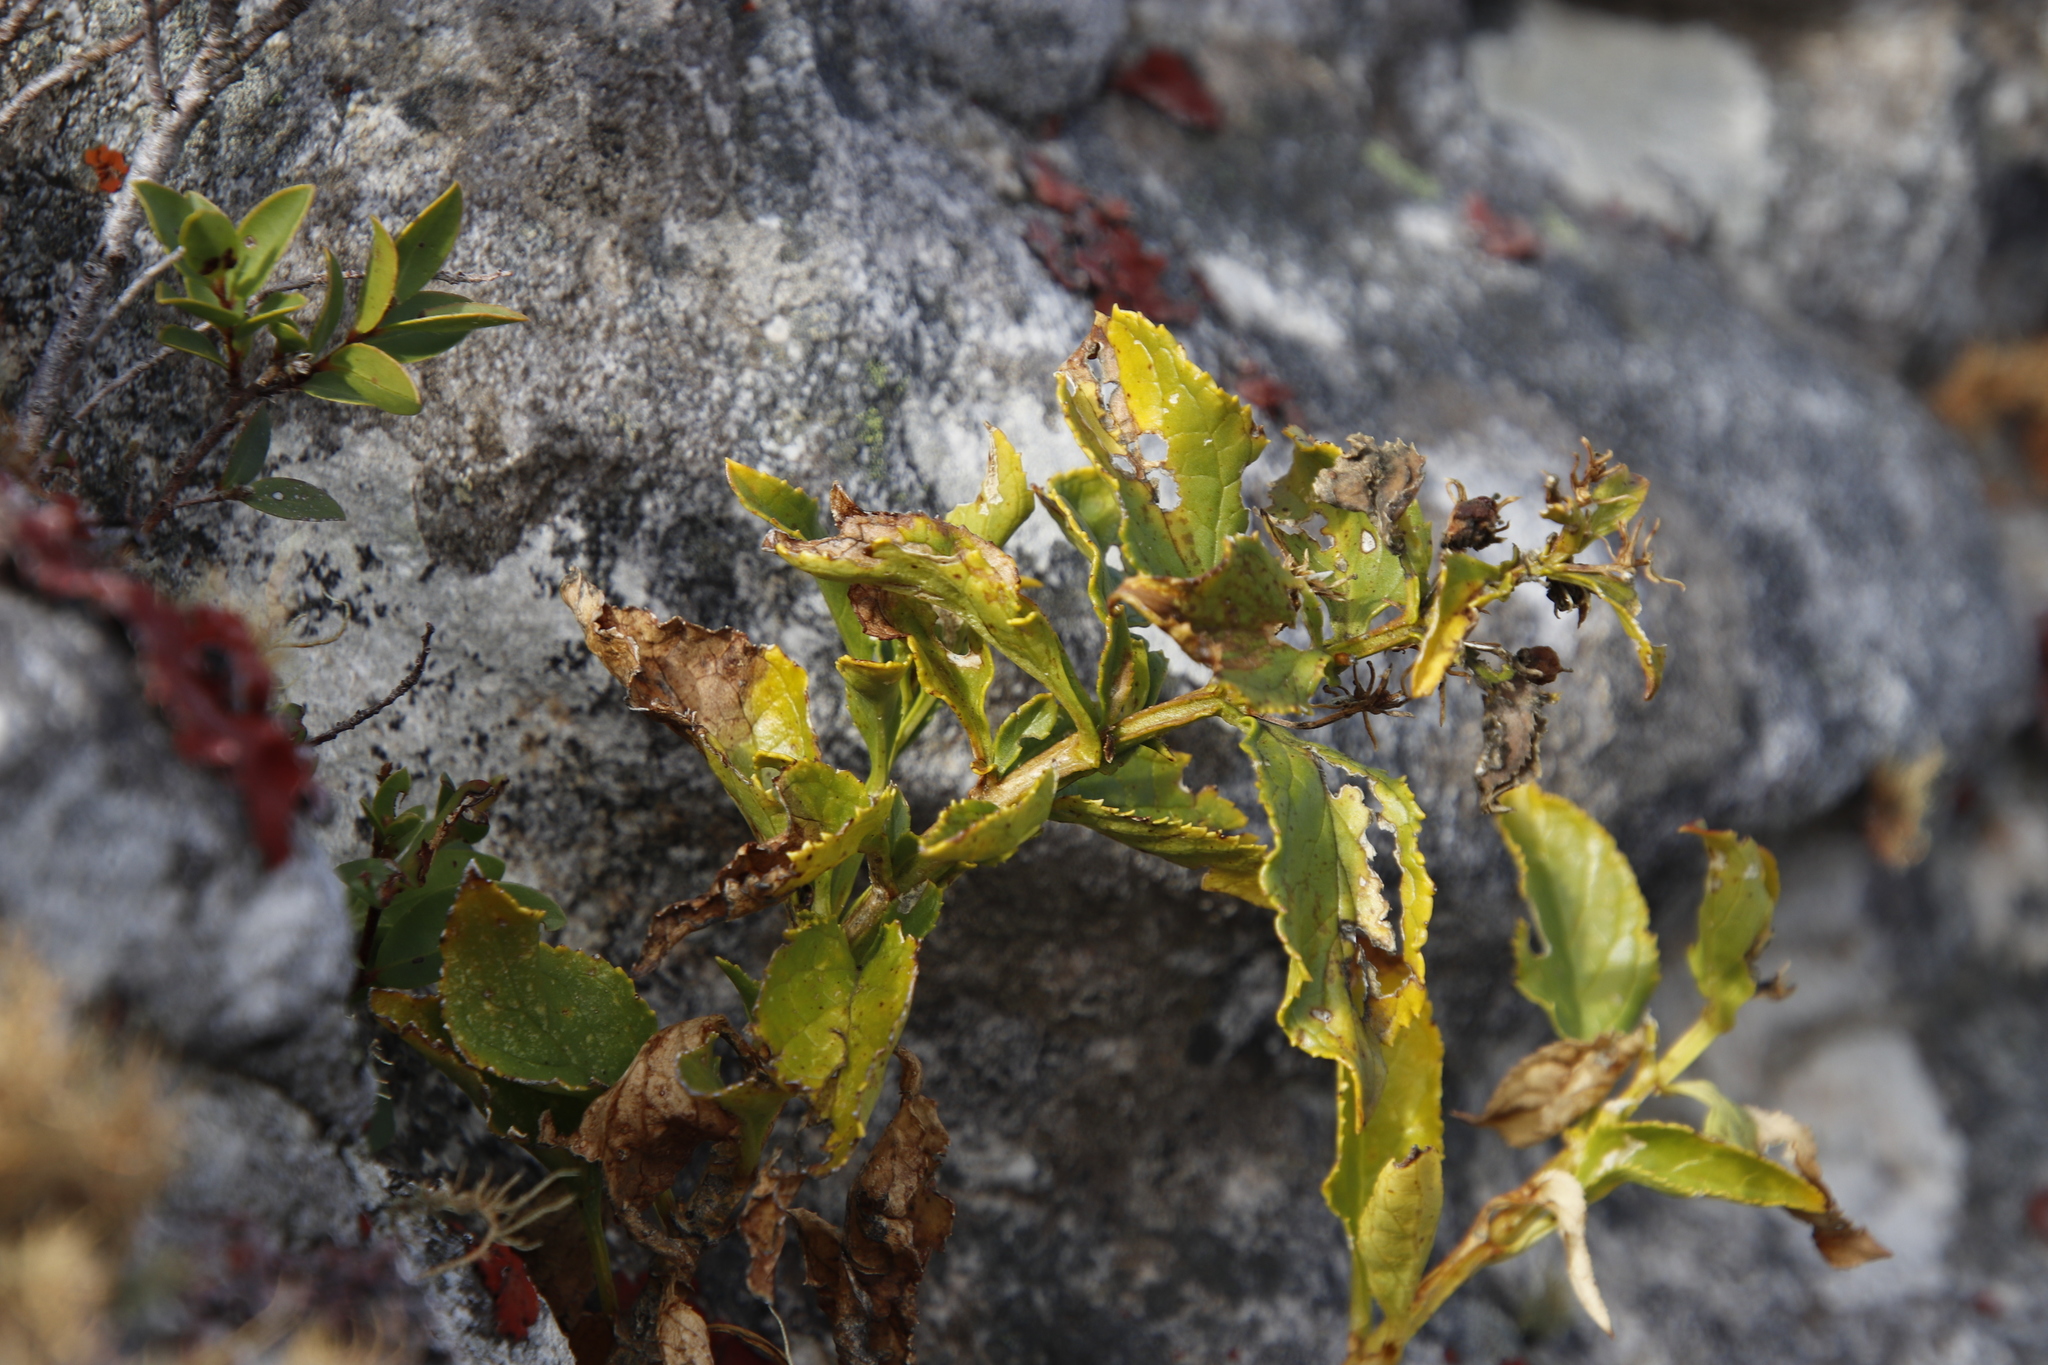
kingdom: Plantae
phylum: Tracheophyta
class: Magnoliopsida
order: Lamiales
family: Scrophulariaceae
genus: Teedia
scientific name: Teedia lucida
